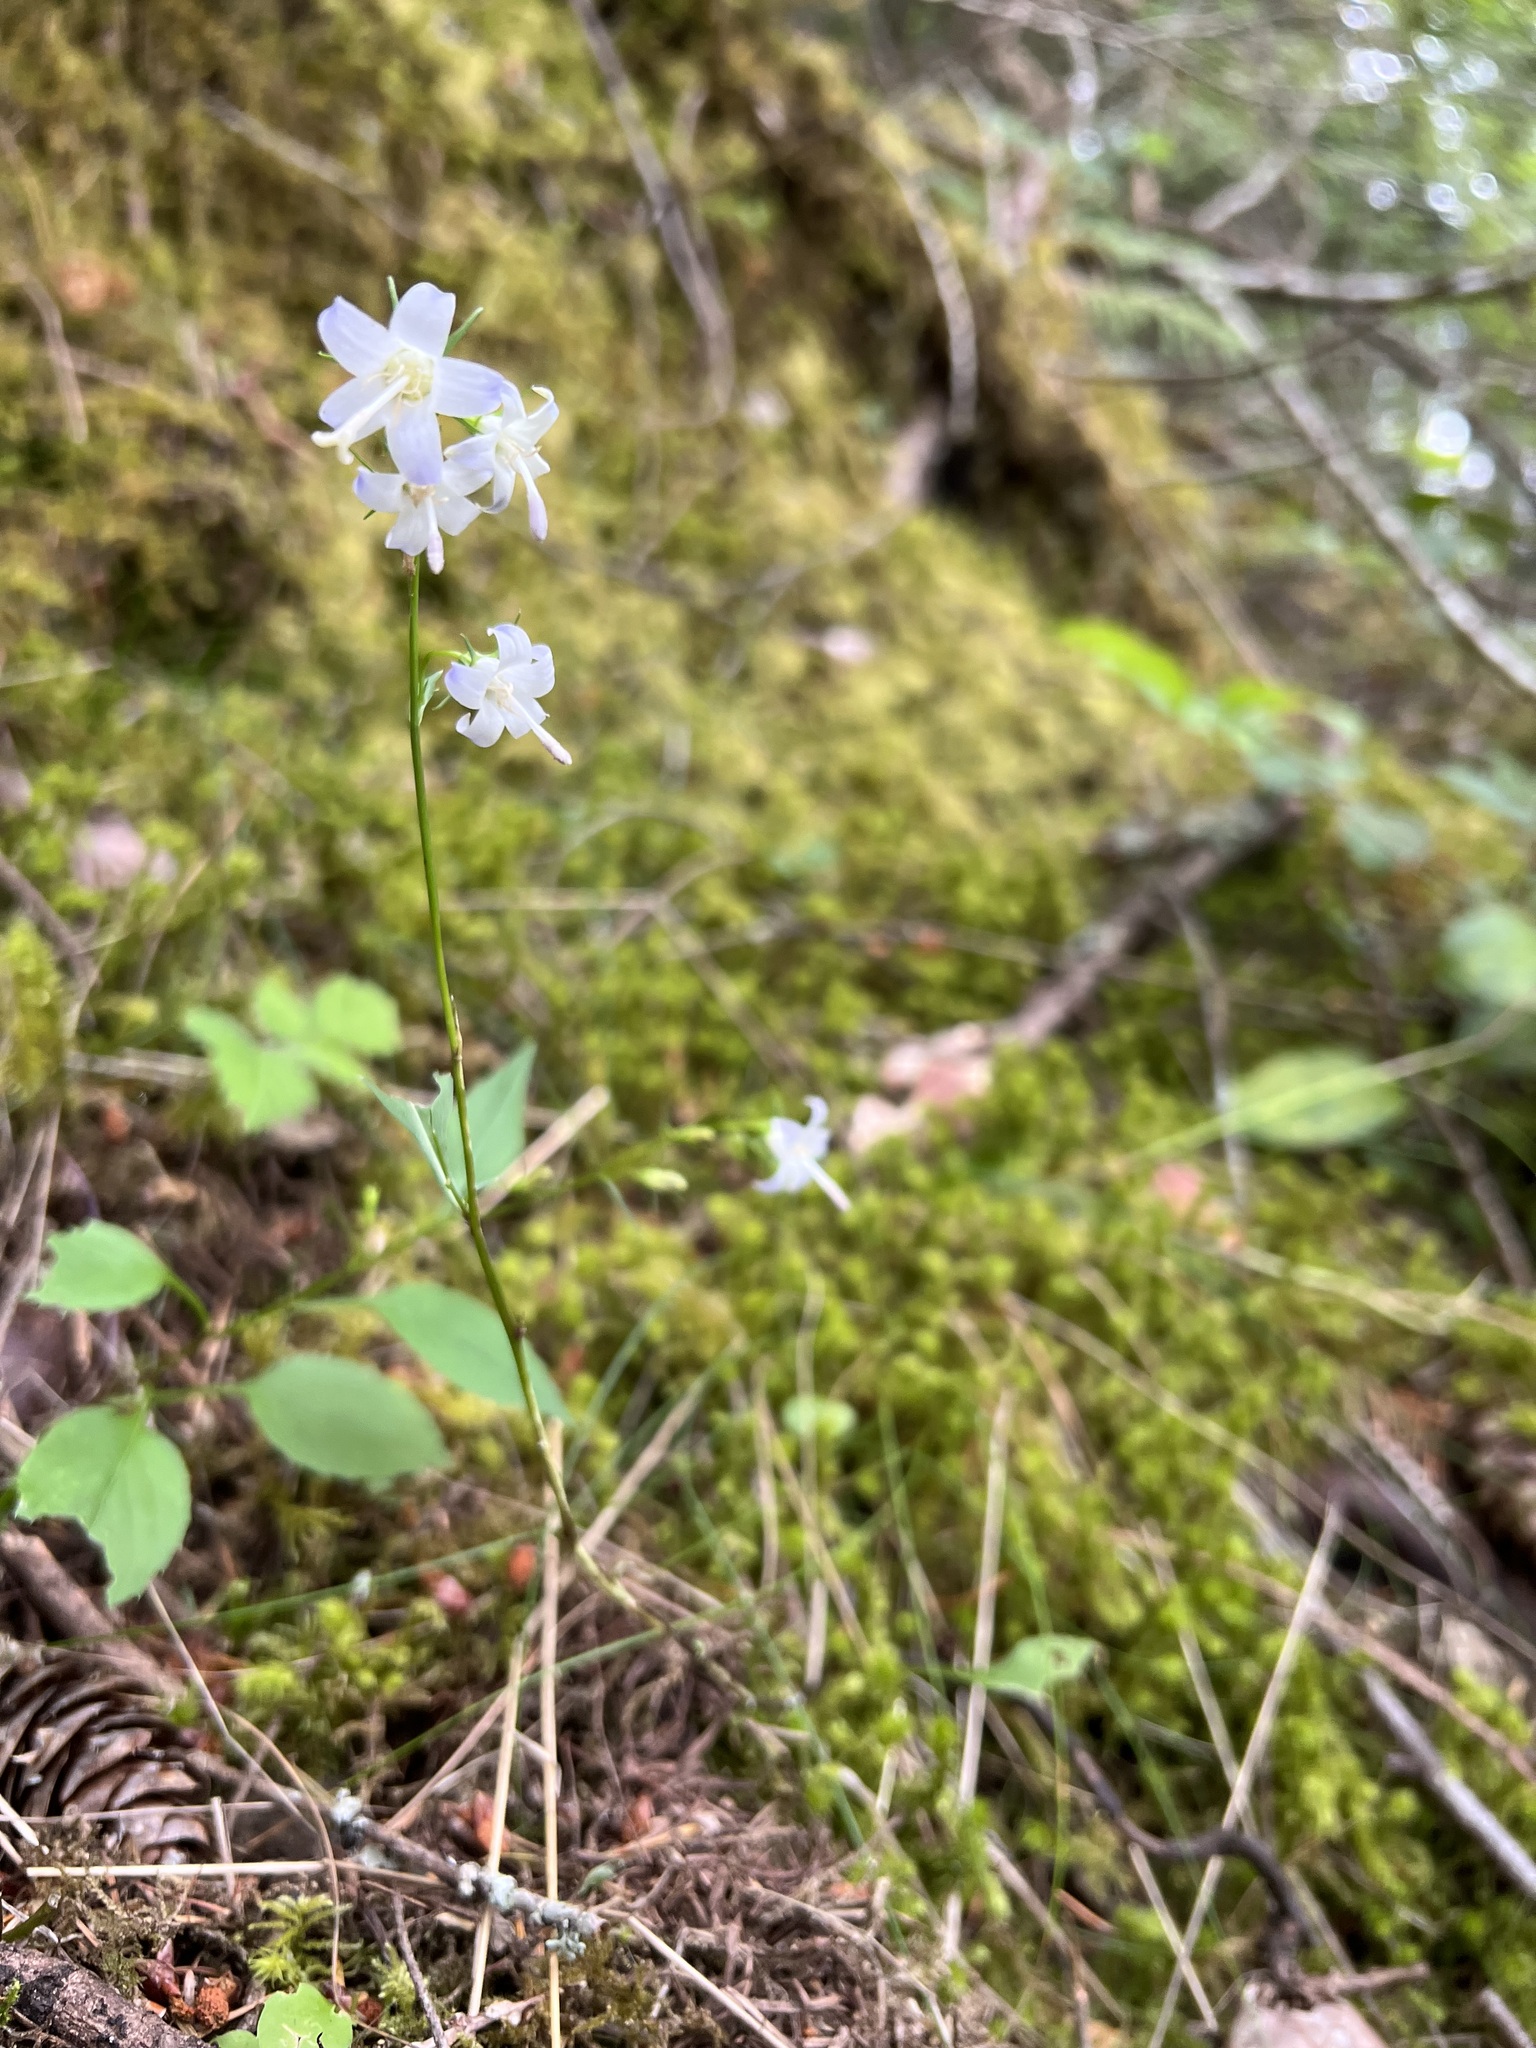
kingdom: Plantae
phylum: Tracheophyta
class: Magnoliopsida
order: Asterales
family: Campanulaceae
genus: Campanula
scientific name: Campanula scouleri
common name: Scouler's harebell
